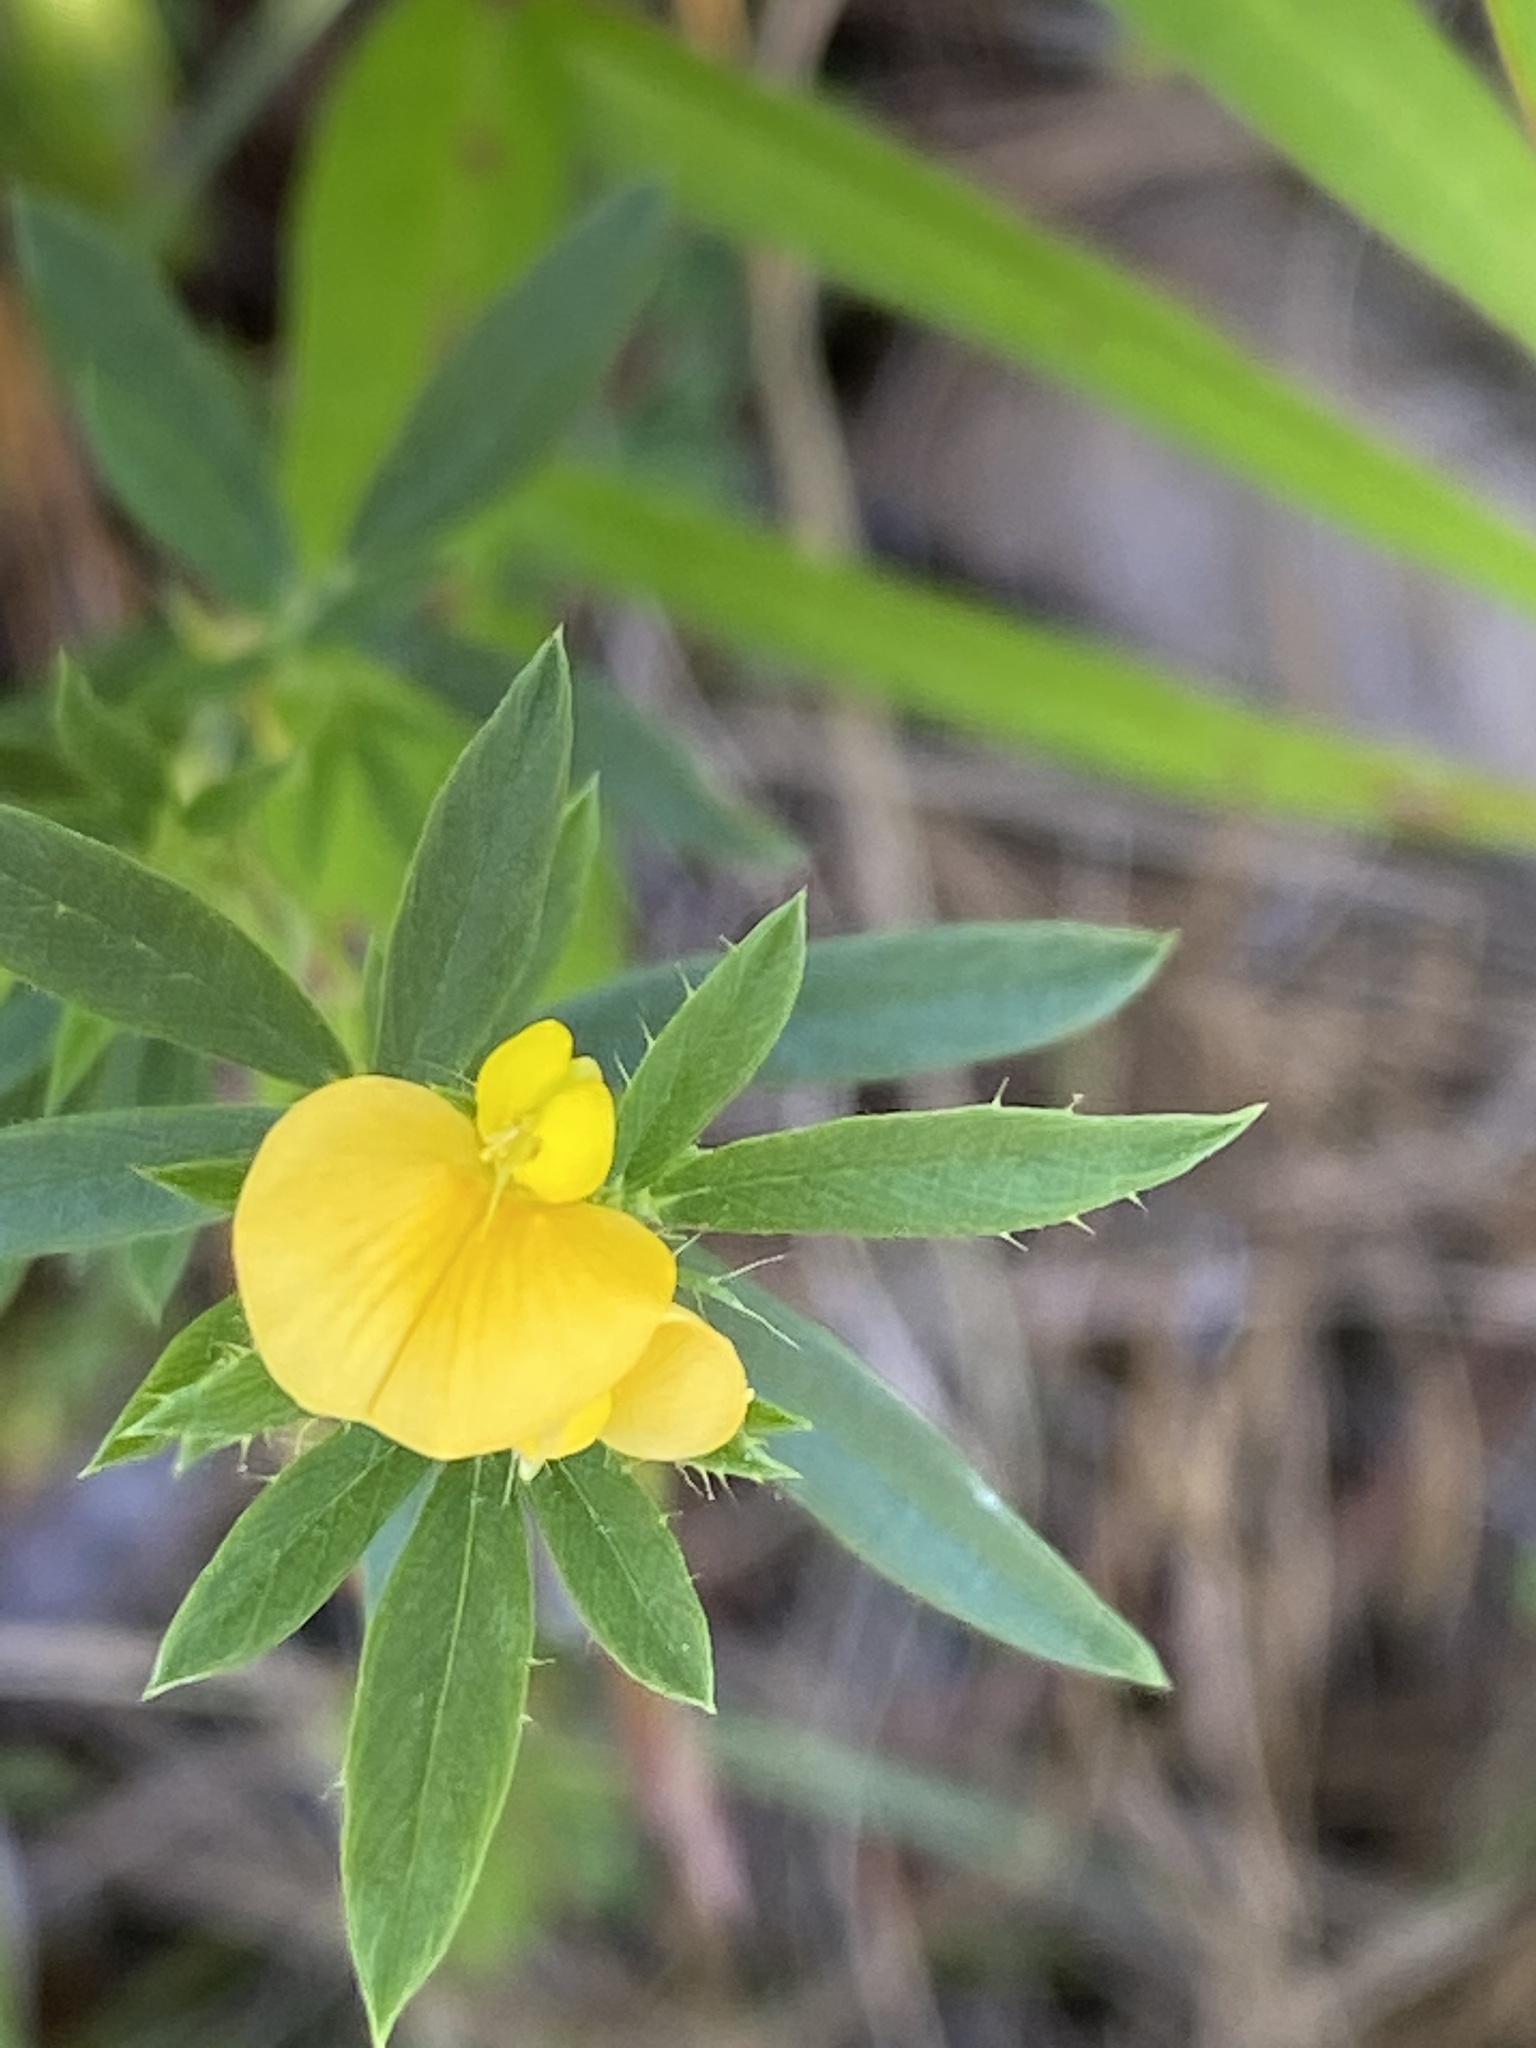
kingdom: Plantae
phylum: Tracheophyta
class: Magnoliopsida
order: Fabales
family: Fabaceae
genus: Stylosanthes
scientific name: Stylosanthes biflora
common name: Two-flower pencil-flower
